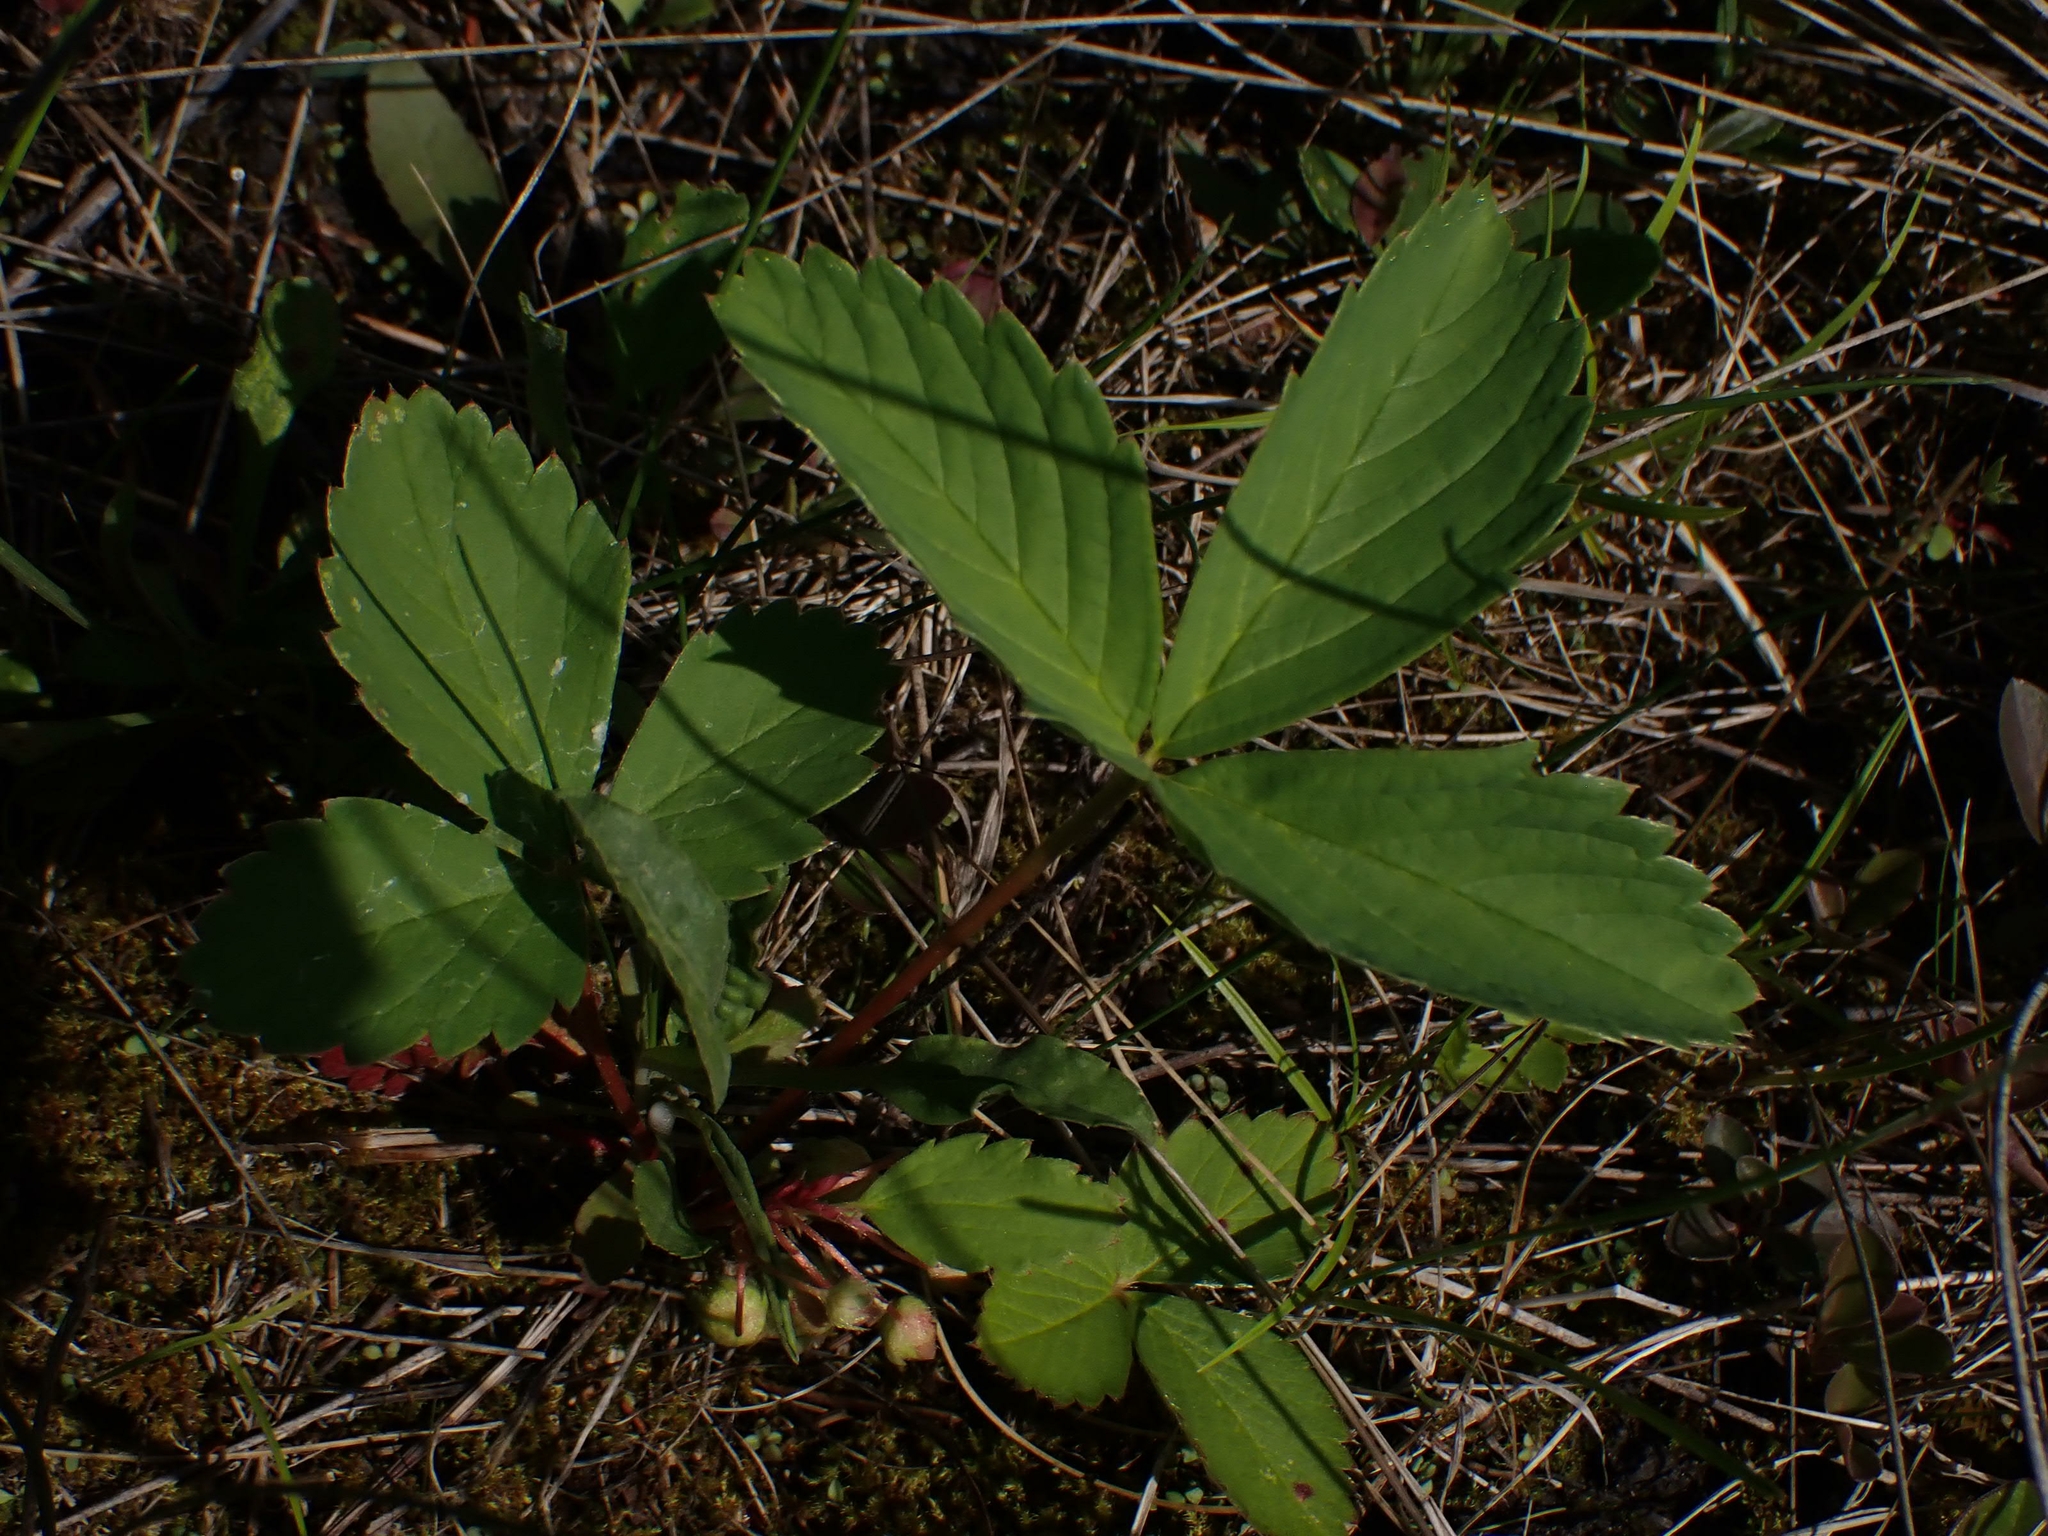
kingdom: Plantae
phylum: Tracheophyta
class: Magnoliopsida
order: Rosales
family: Rosaceae
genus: Fragaria
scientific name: Fragaria virginiana
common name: Thickleaved wild strawberry
